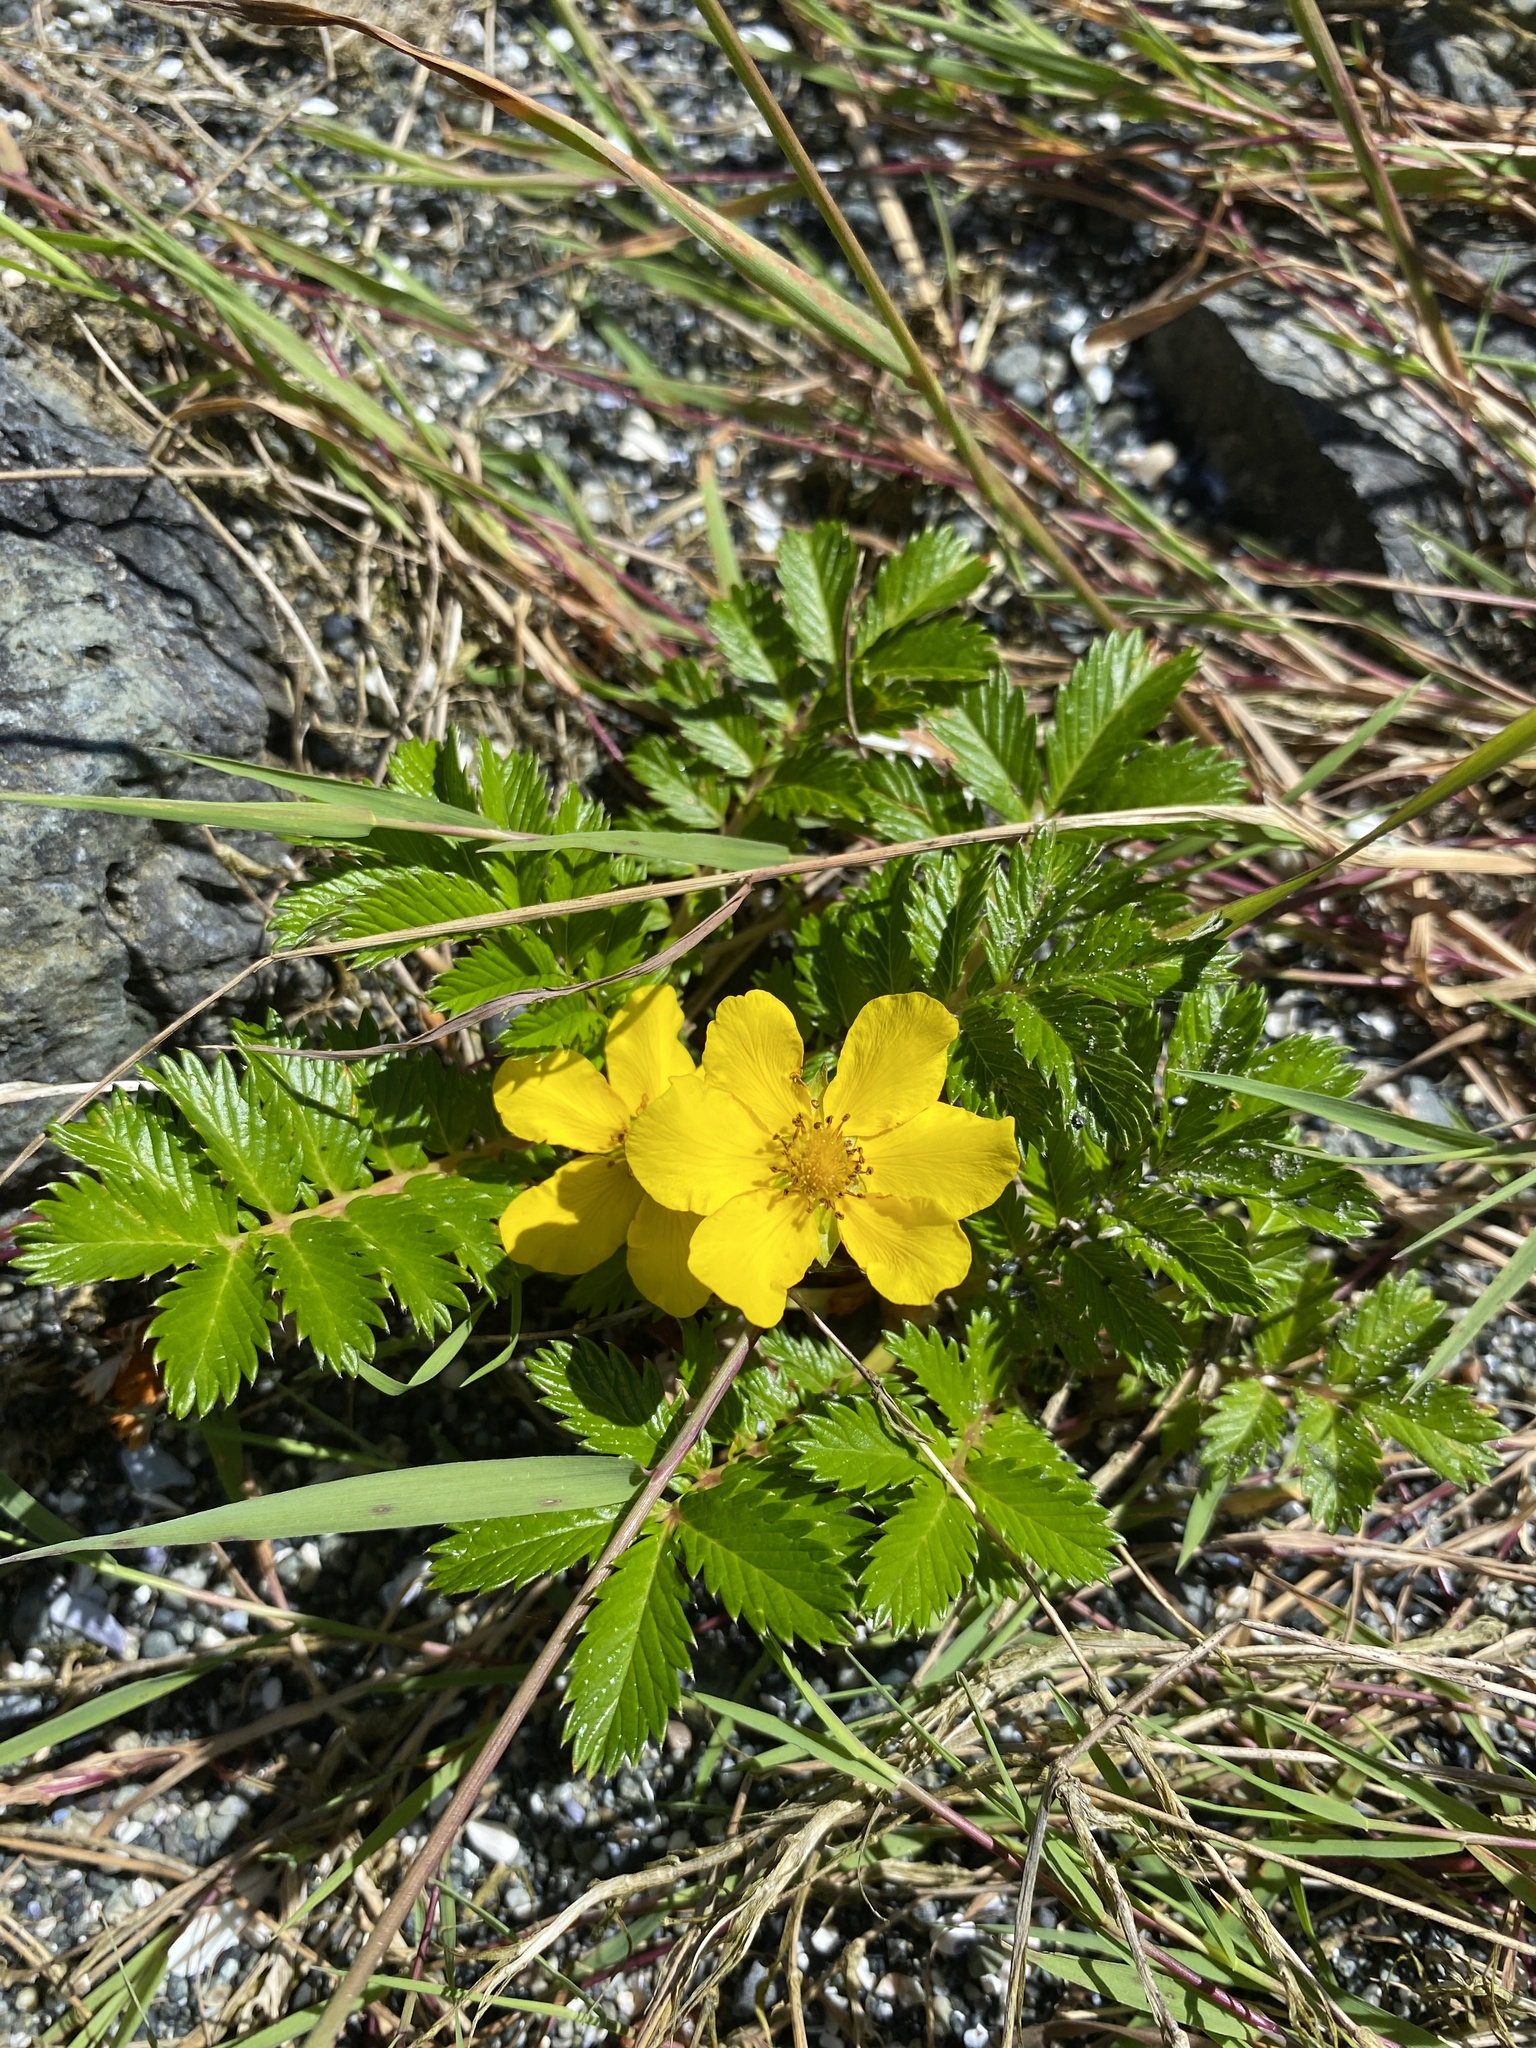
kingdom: Plantae
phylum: Tracheophyta
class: Magnoliopsida
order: Rosales
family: Rosaceae
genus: Argentina
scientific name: Argentina anserina
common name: Common silverweed
